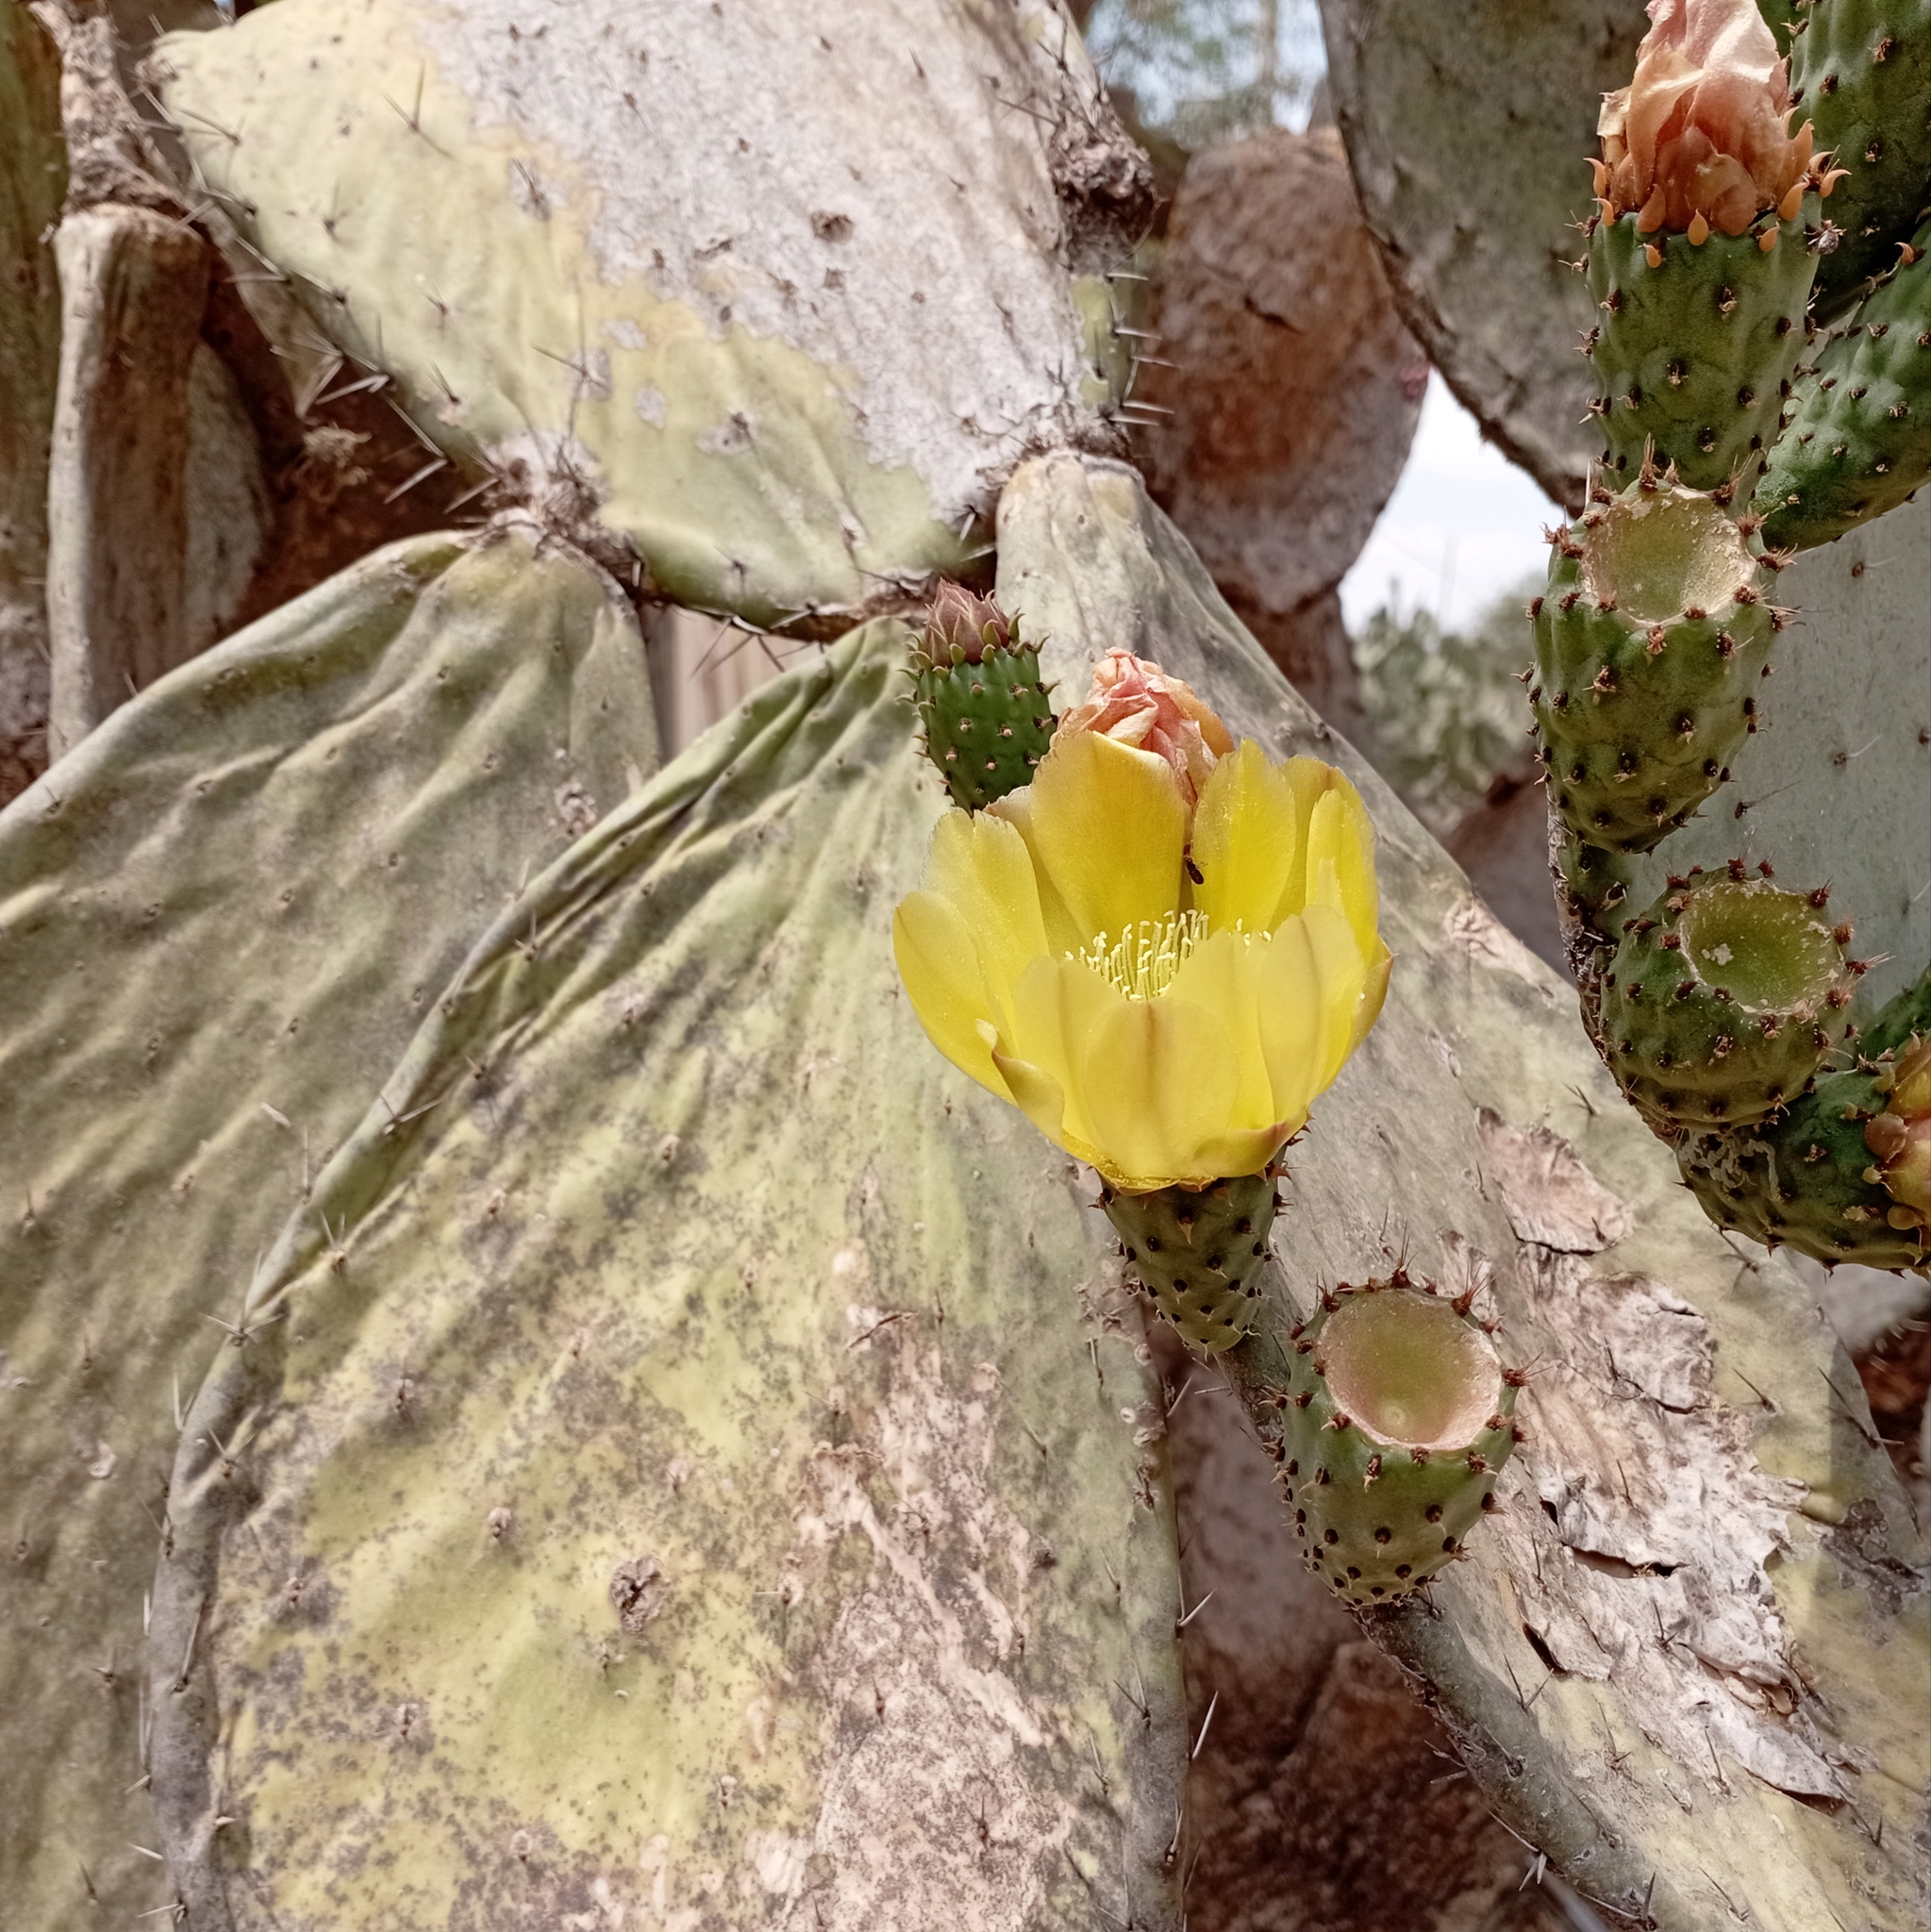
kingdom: Plantae
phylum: Tracheophyta
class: Magnoliopsida
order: Caryophyllales
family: Cactaceae
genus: Opuntia
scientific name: Opuntia lasiacantha
